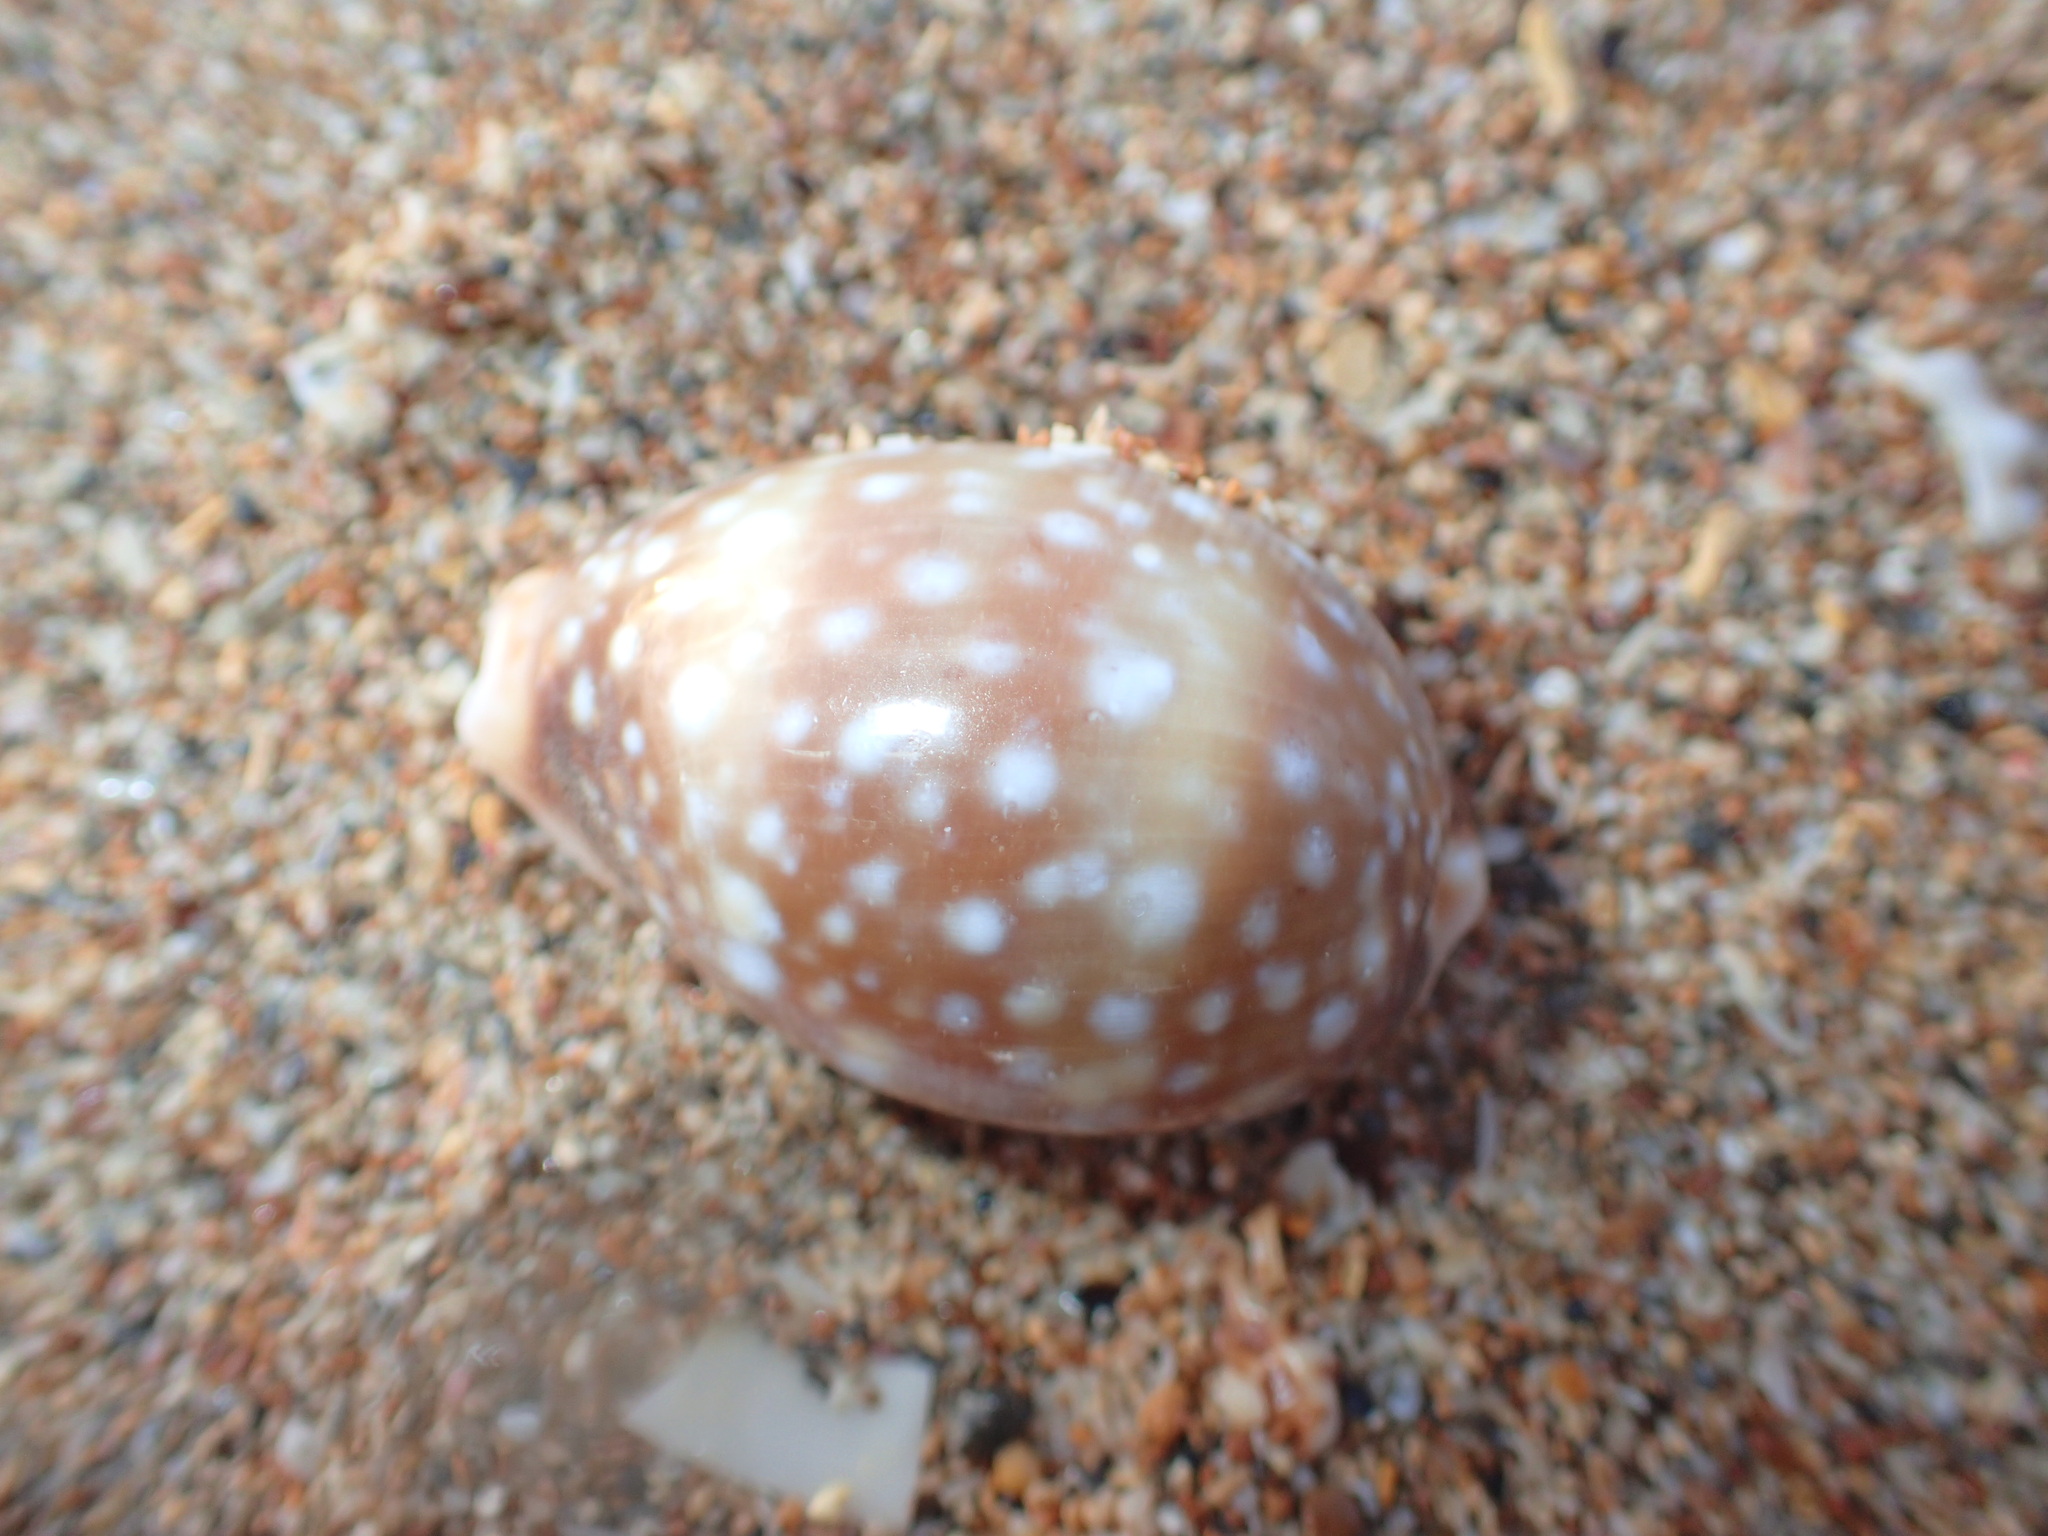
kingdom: Animalia
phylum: Mollusca
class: Gastropoda
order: Littorinimorpha
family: Cypraeidae
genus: Lyncina
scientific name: Lyncina vitellus
